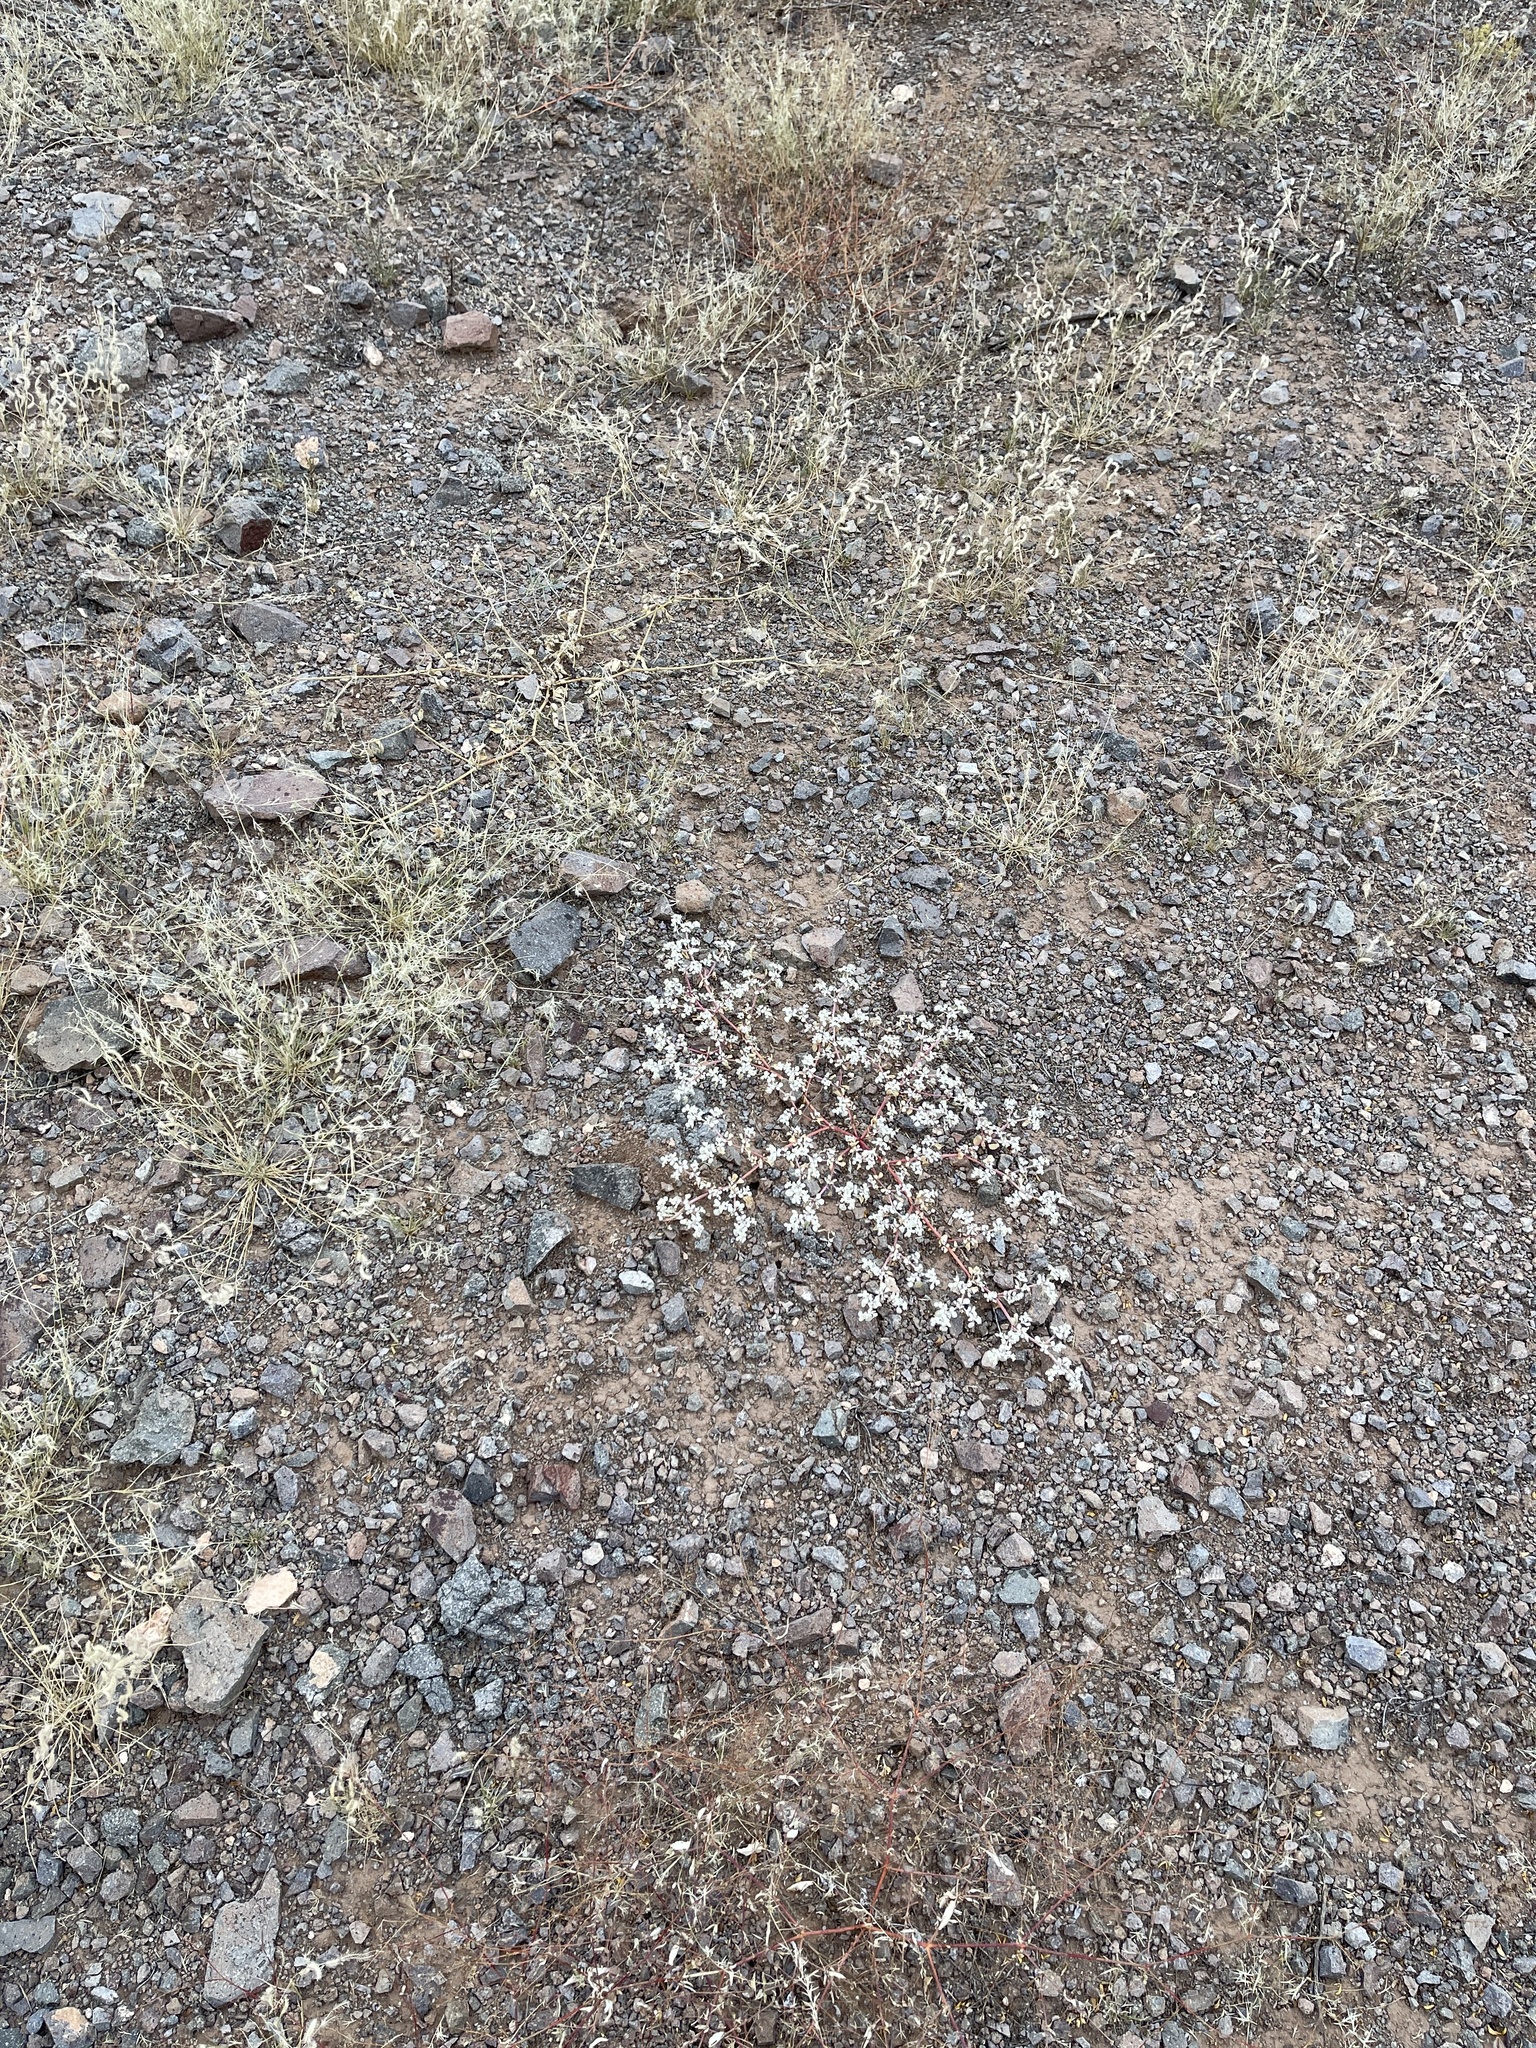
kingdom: Plantae
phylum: Tracheophyta
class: Magnoliopsida
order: Caryophyllales
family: Amaranthaceae
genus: Tidestromia
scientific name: Tidestromia lanuginosa
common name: Woolly tidestromia
